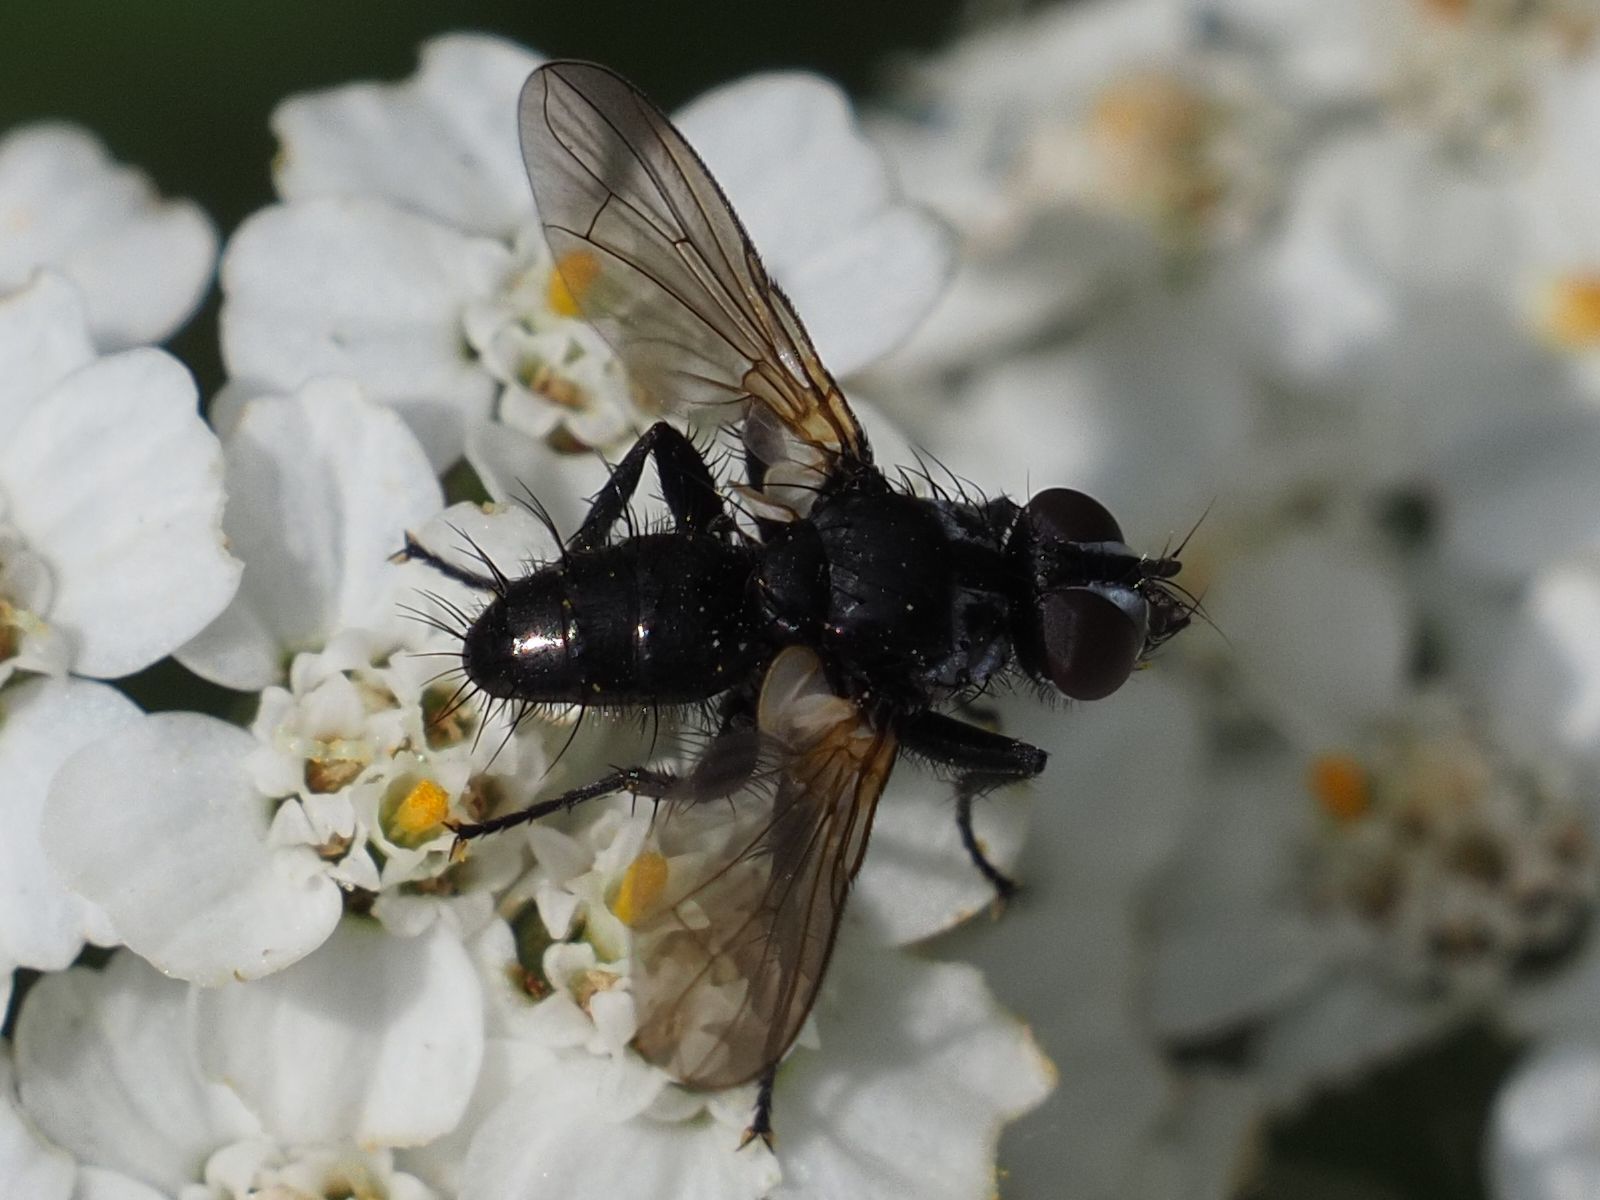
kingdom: Animalia
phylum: Arthropoda
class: Insecta
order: Diptera
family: Tachinidae
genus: Phania
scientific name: Phania funesta
